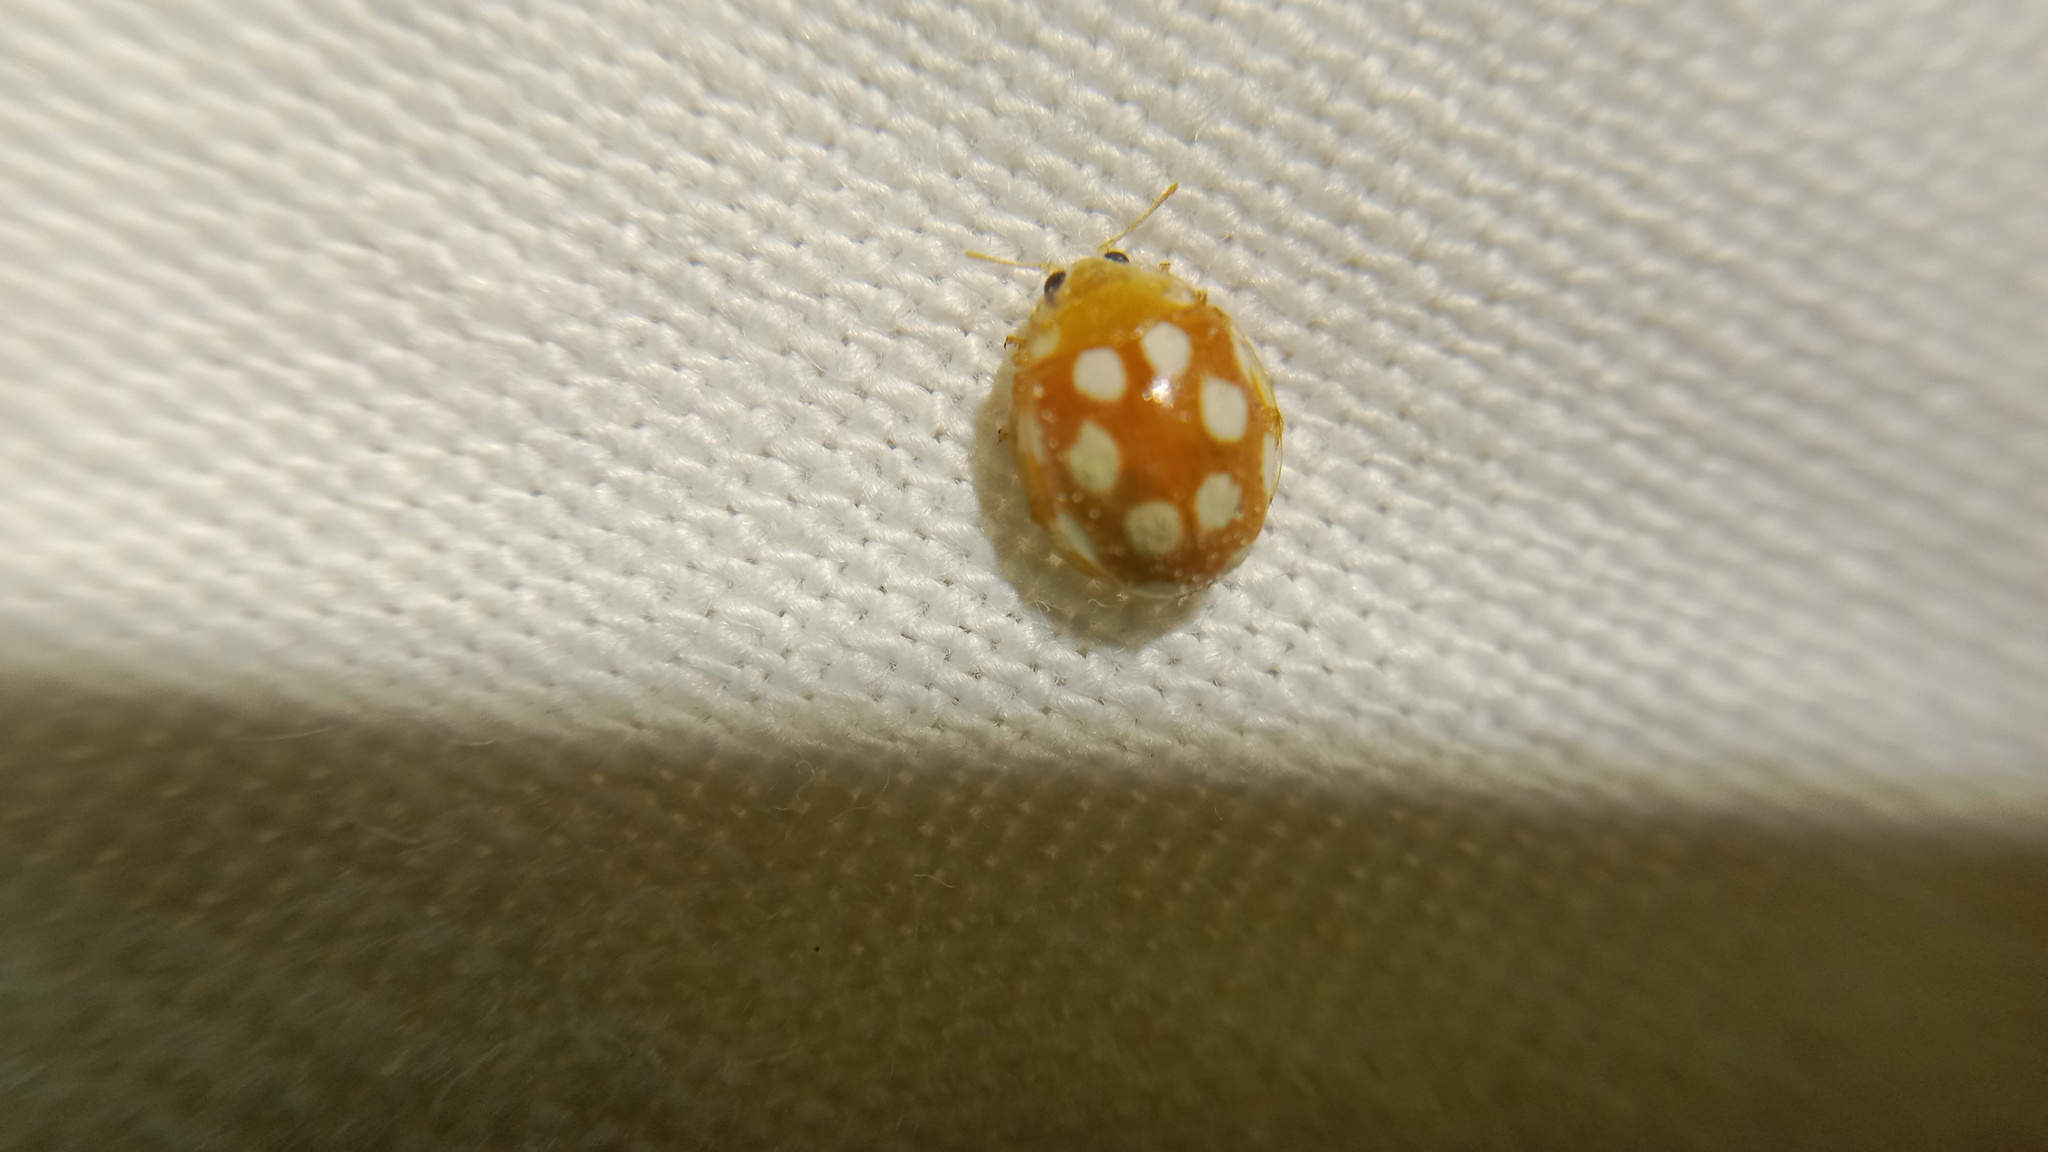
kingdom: Animalia
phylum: Arthropoda
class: Insecta
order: Coleoptera
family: Coccinellidae
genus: Vibidia
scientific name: Vibidia duodecimguttata
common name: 12-spot ladybird
